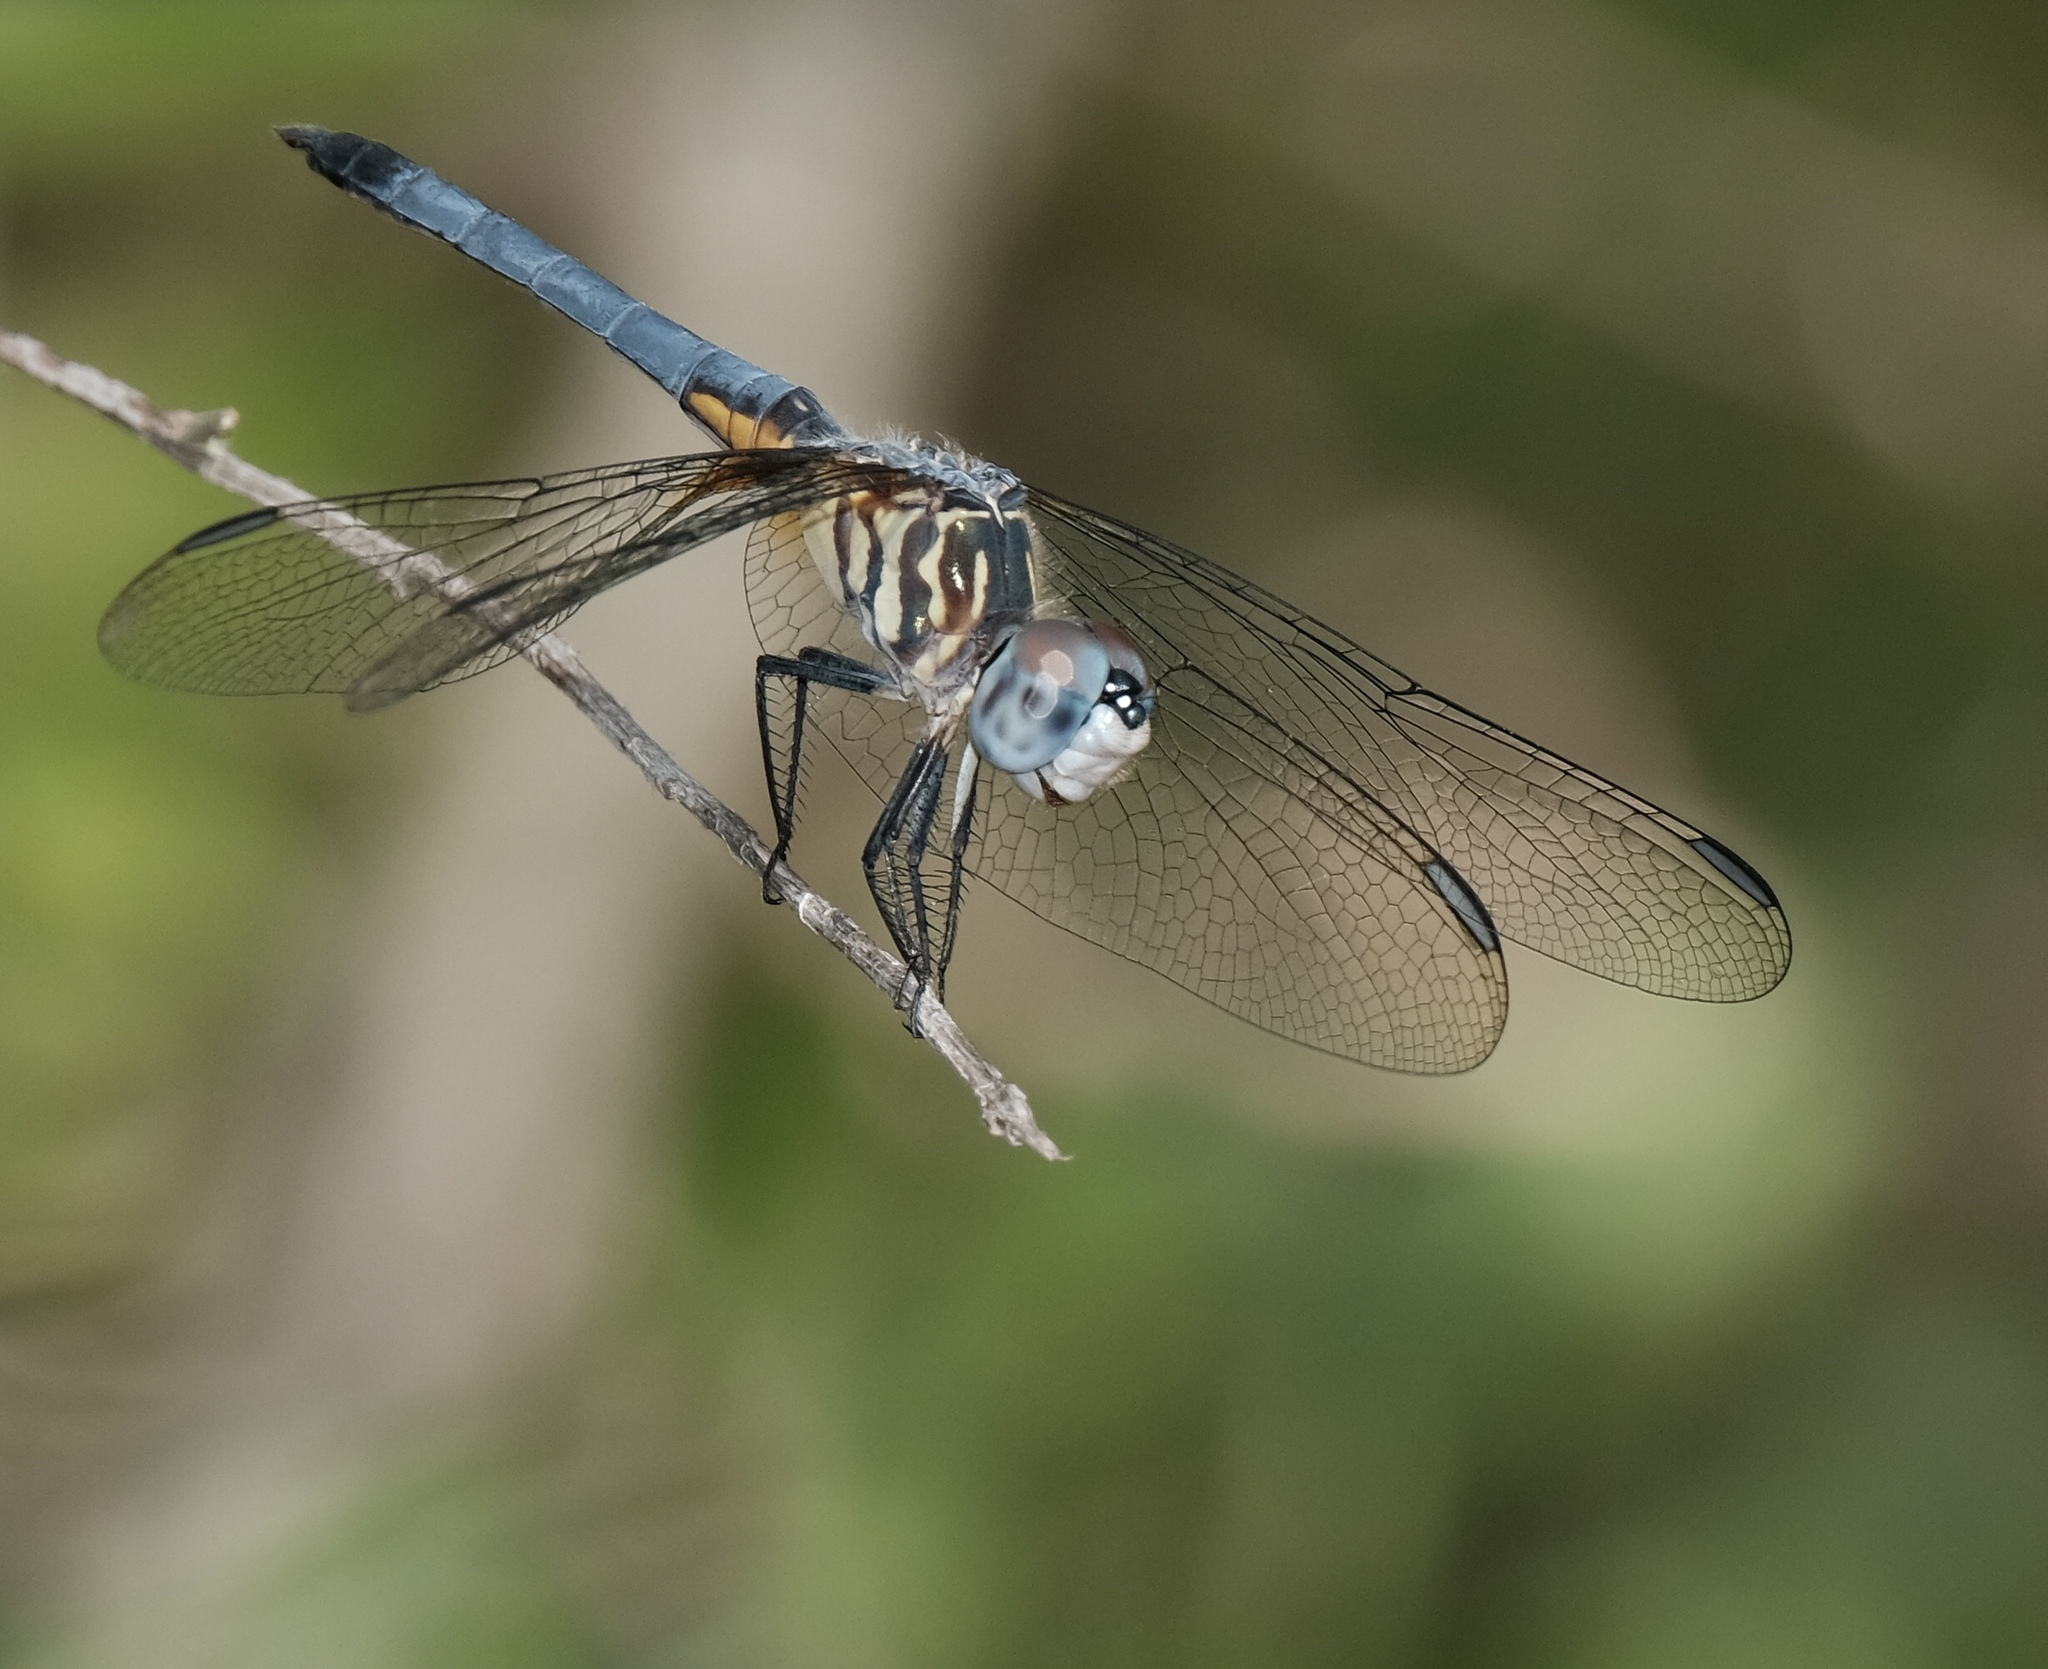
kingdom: Animalia
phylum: Arthropoda
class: Insecta
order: Odonata
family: Libellulidae
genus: Pachydiplax
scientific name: Pachydiplax longipennis
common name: Blue dasher
